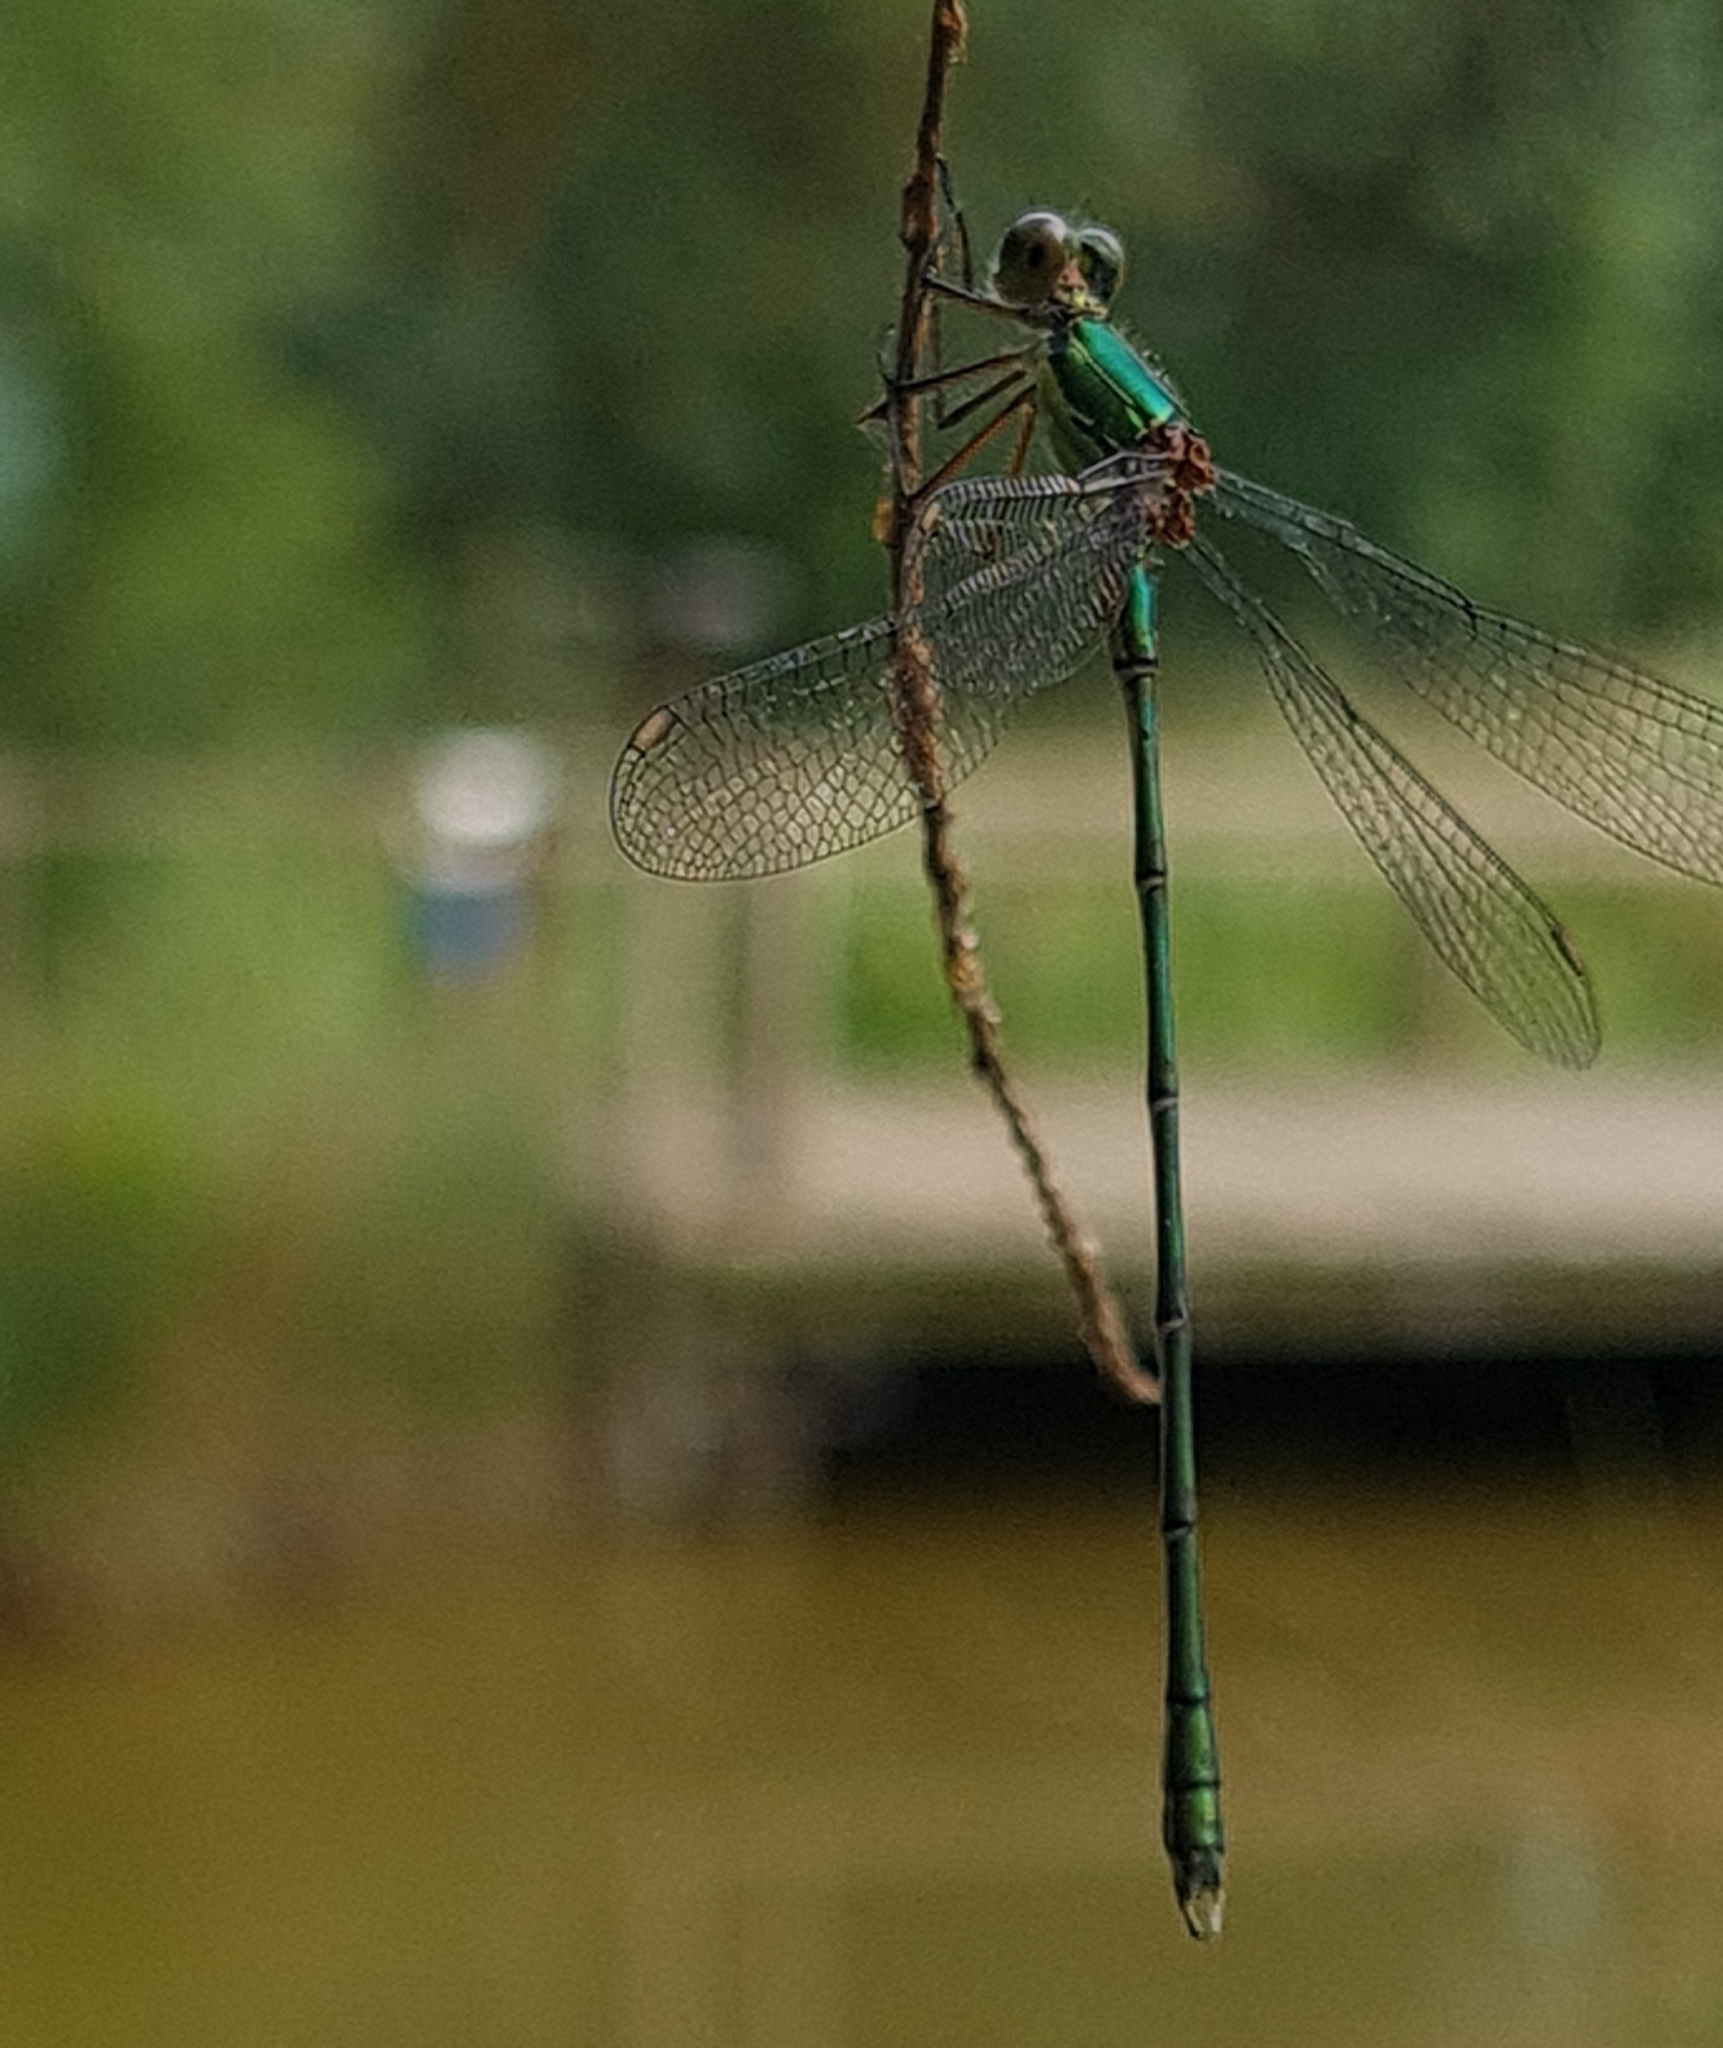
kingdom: Animalia
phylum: Arthropoda
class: Insecta
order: Odonata
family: Lestidae
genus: Chalcolestes
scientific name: Chalcolestes viridis
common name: Green emerald damselfly
